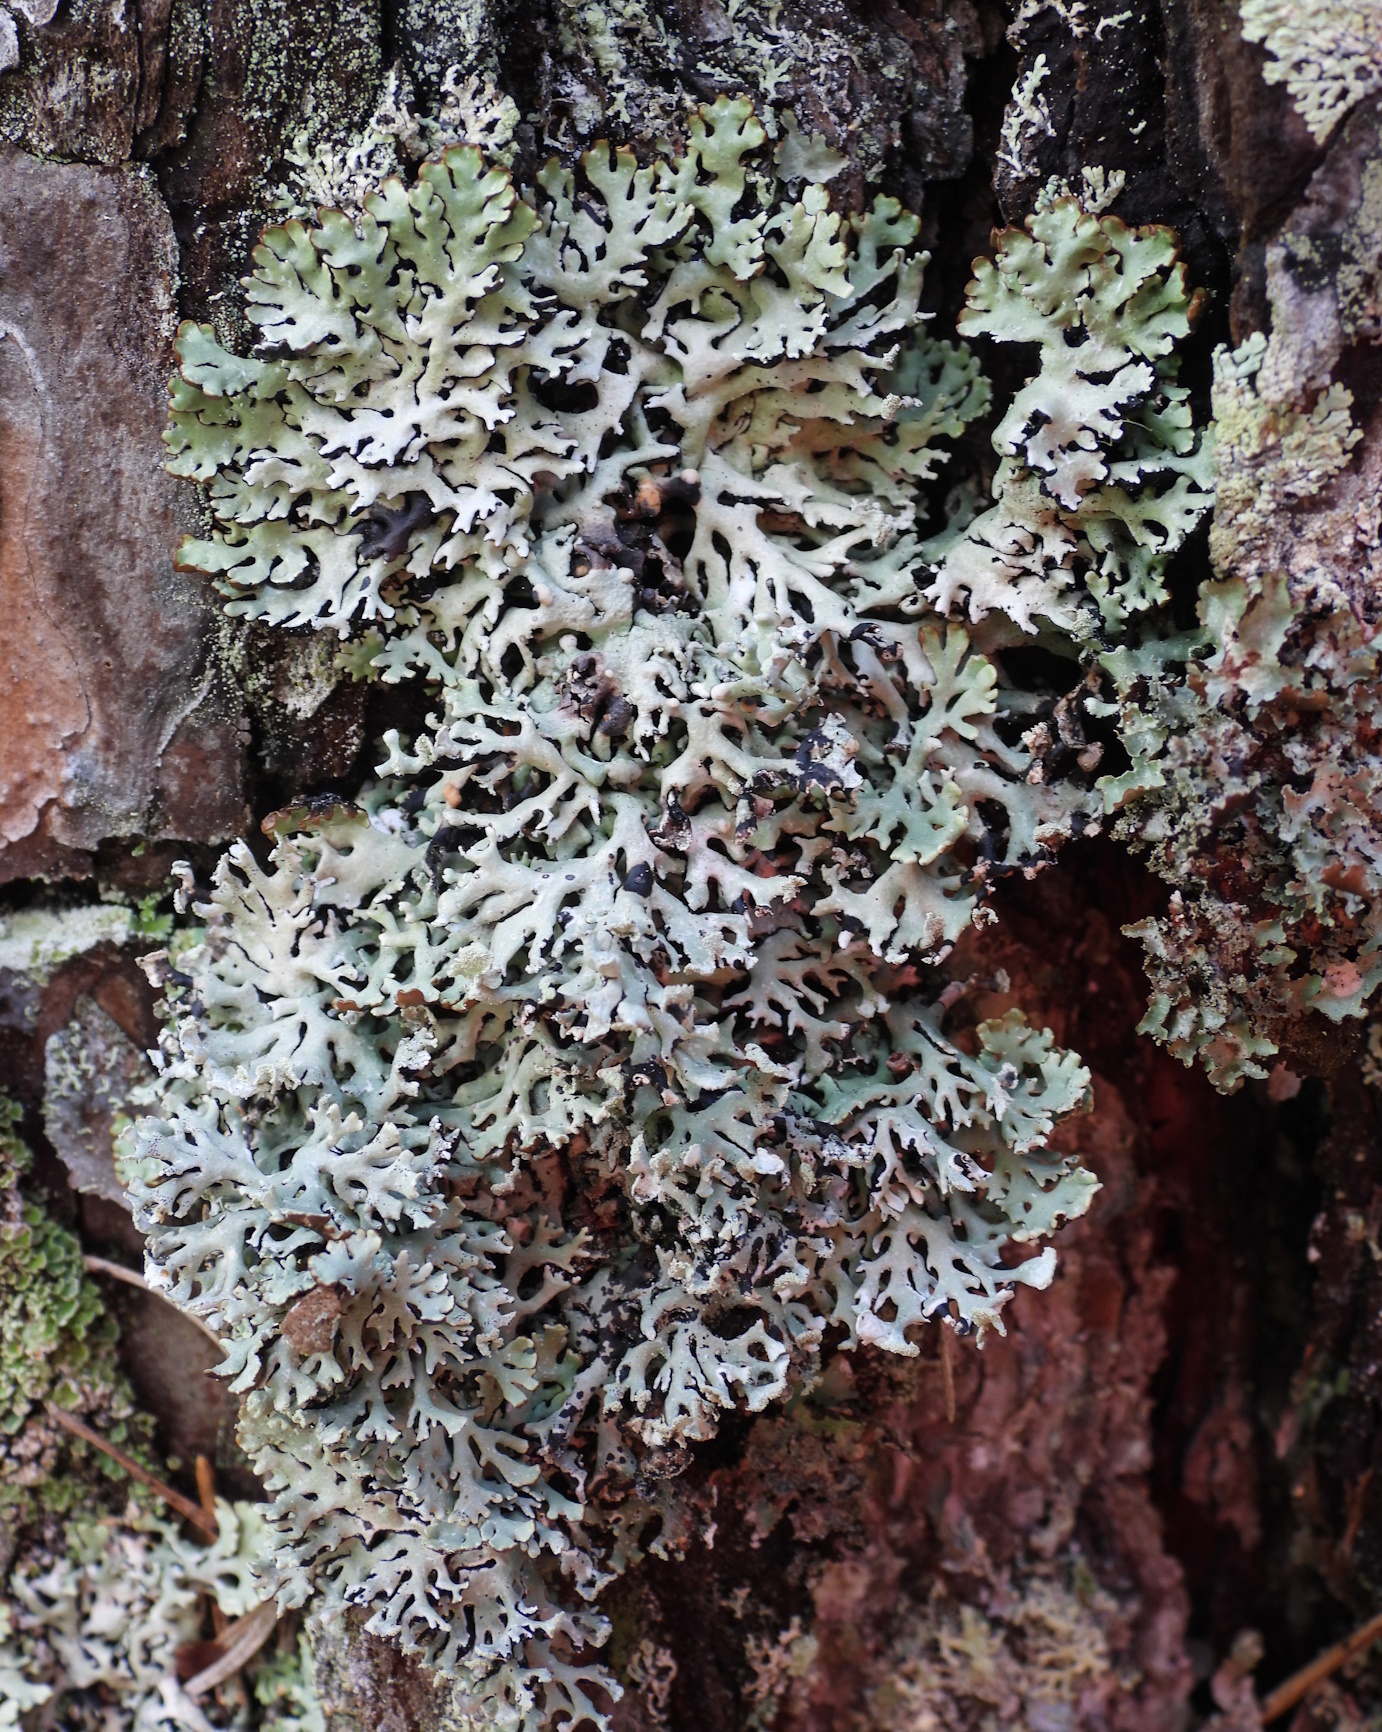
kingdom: Fungi
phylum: Ascomycota
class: Lecanoromycetes
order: Lecanorales
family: Parmeliaceae
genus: Hypogymnia
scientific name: Hypogymnia physodes
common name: Dark crottle
